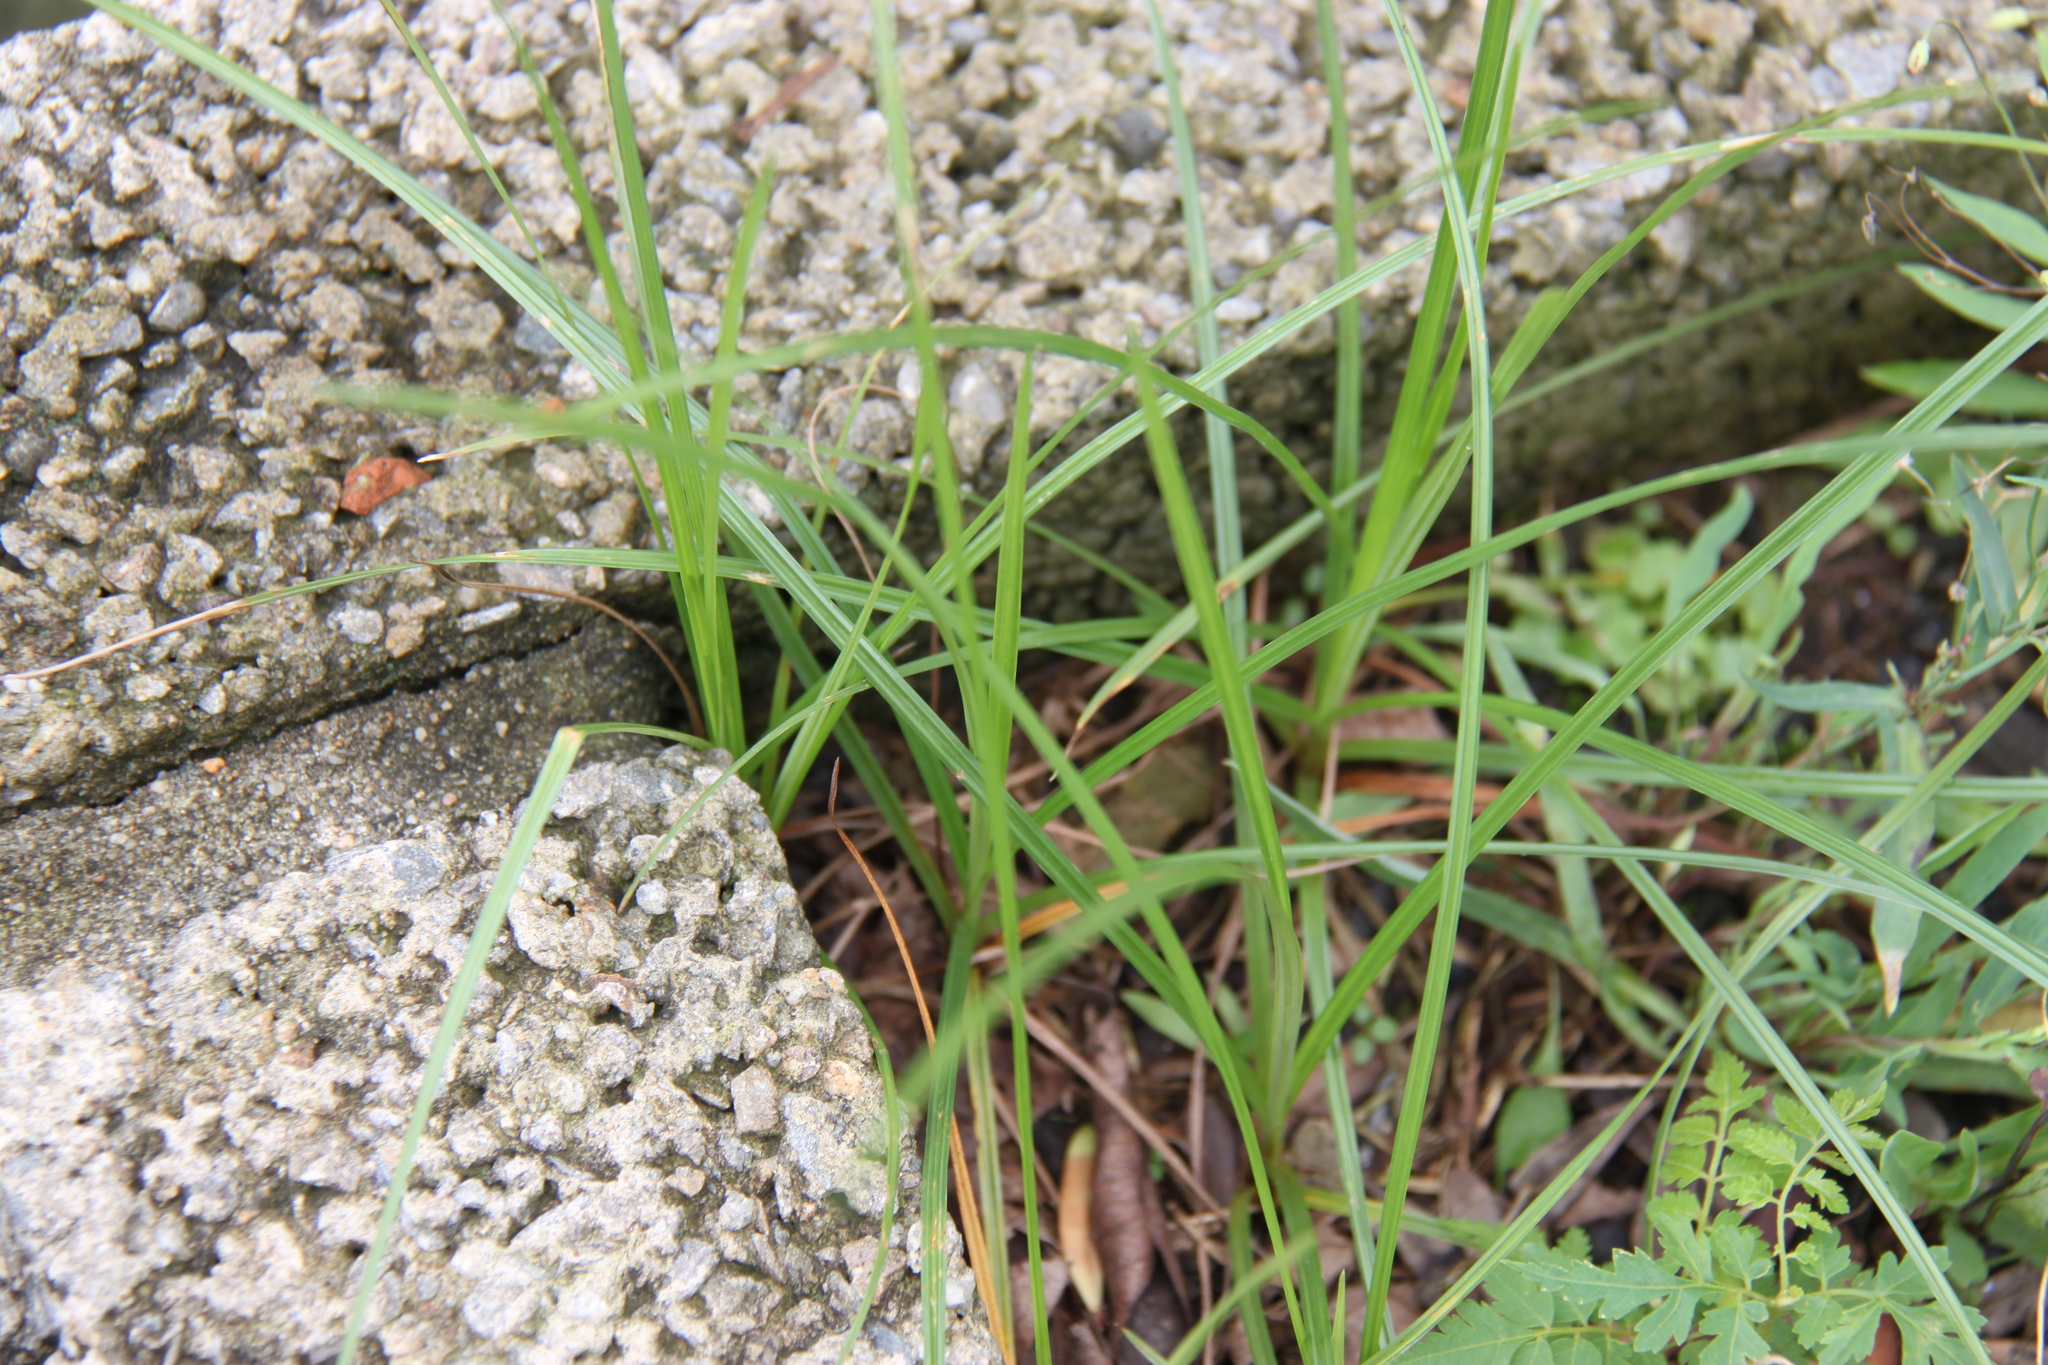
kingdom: Plantae
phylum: Tracheophyta
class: Liliopsida
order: Poales
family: Cyperaceae
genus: Cyperus
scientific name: Cyperus rotundus
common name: Nutgrass
